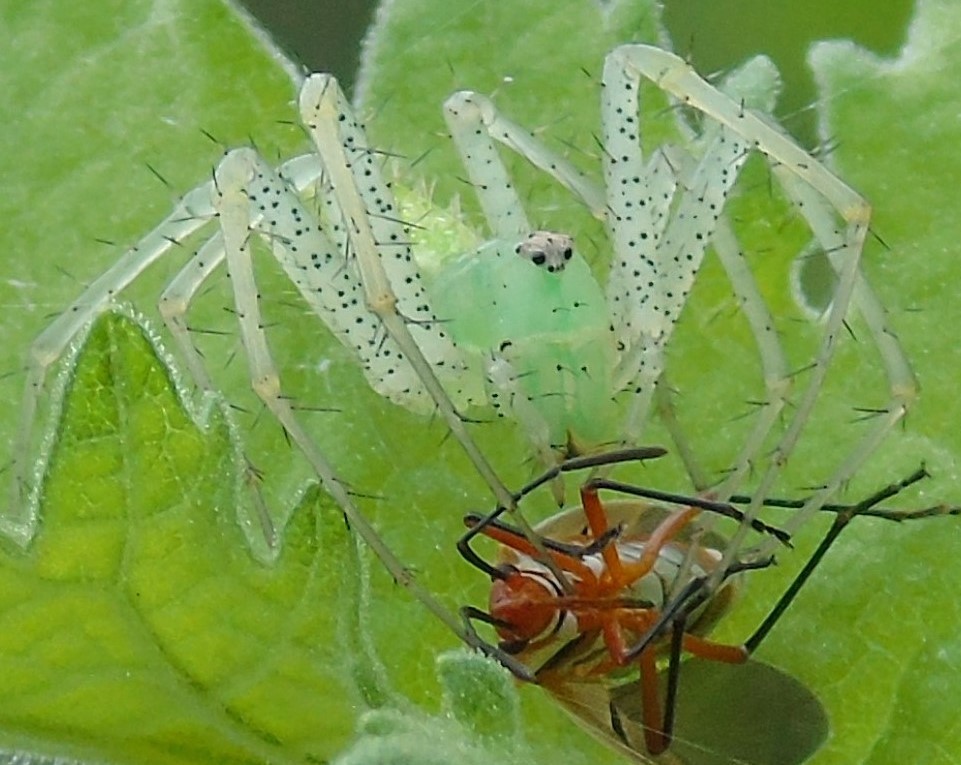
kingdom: Animalia
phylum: Arthropoda
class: Arachnida
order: Araneae
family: Oxyopidae
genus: Peucetia
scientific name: Peucetia
